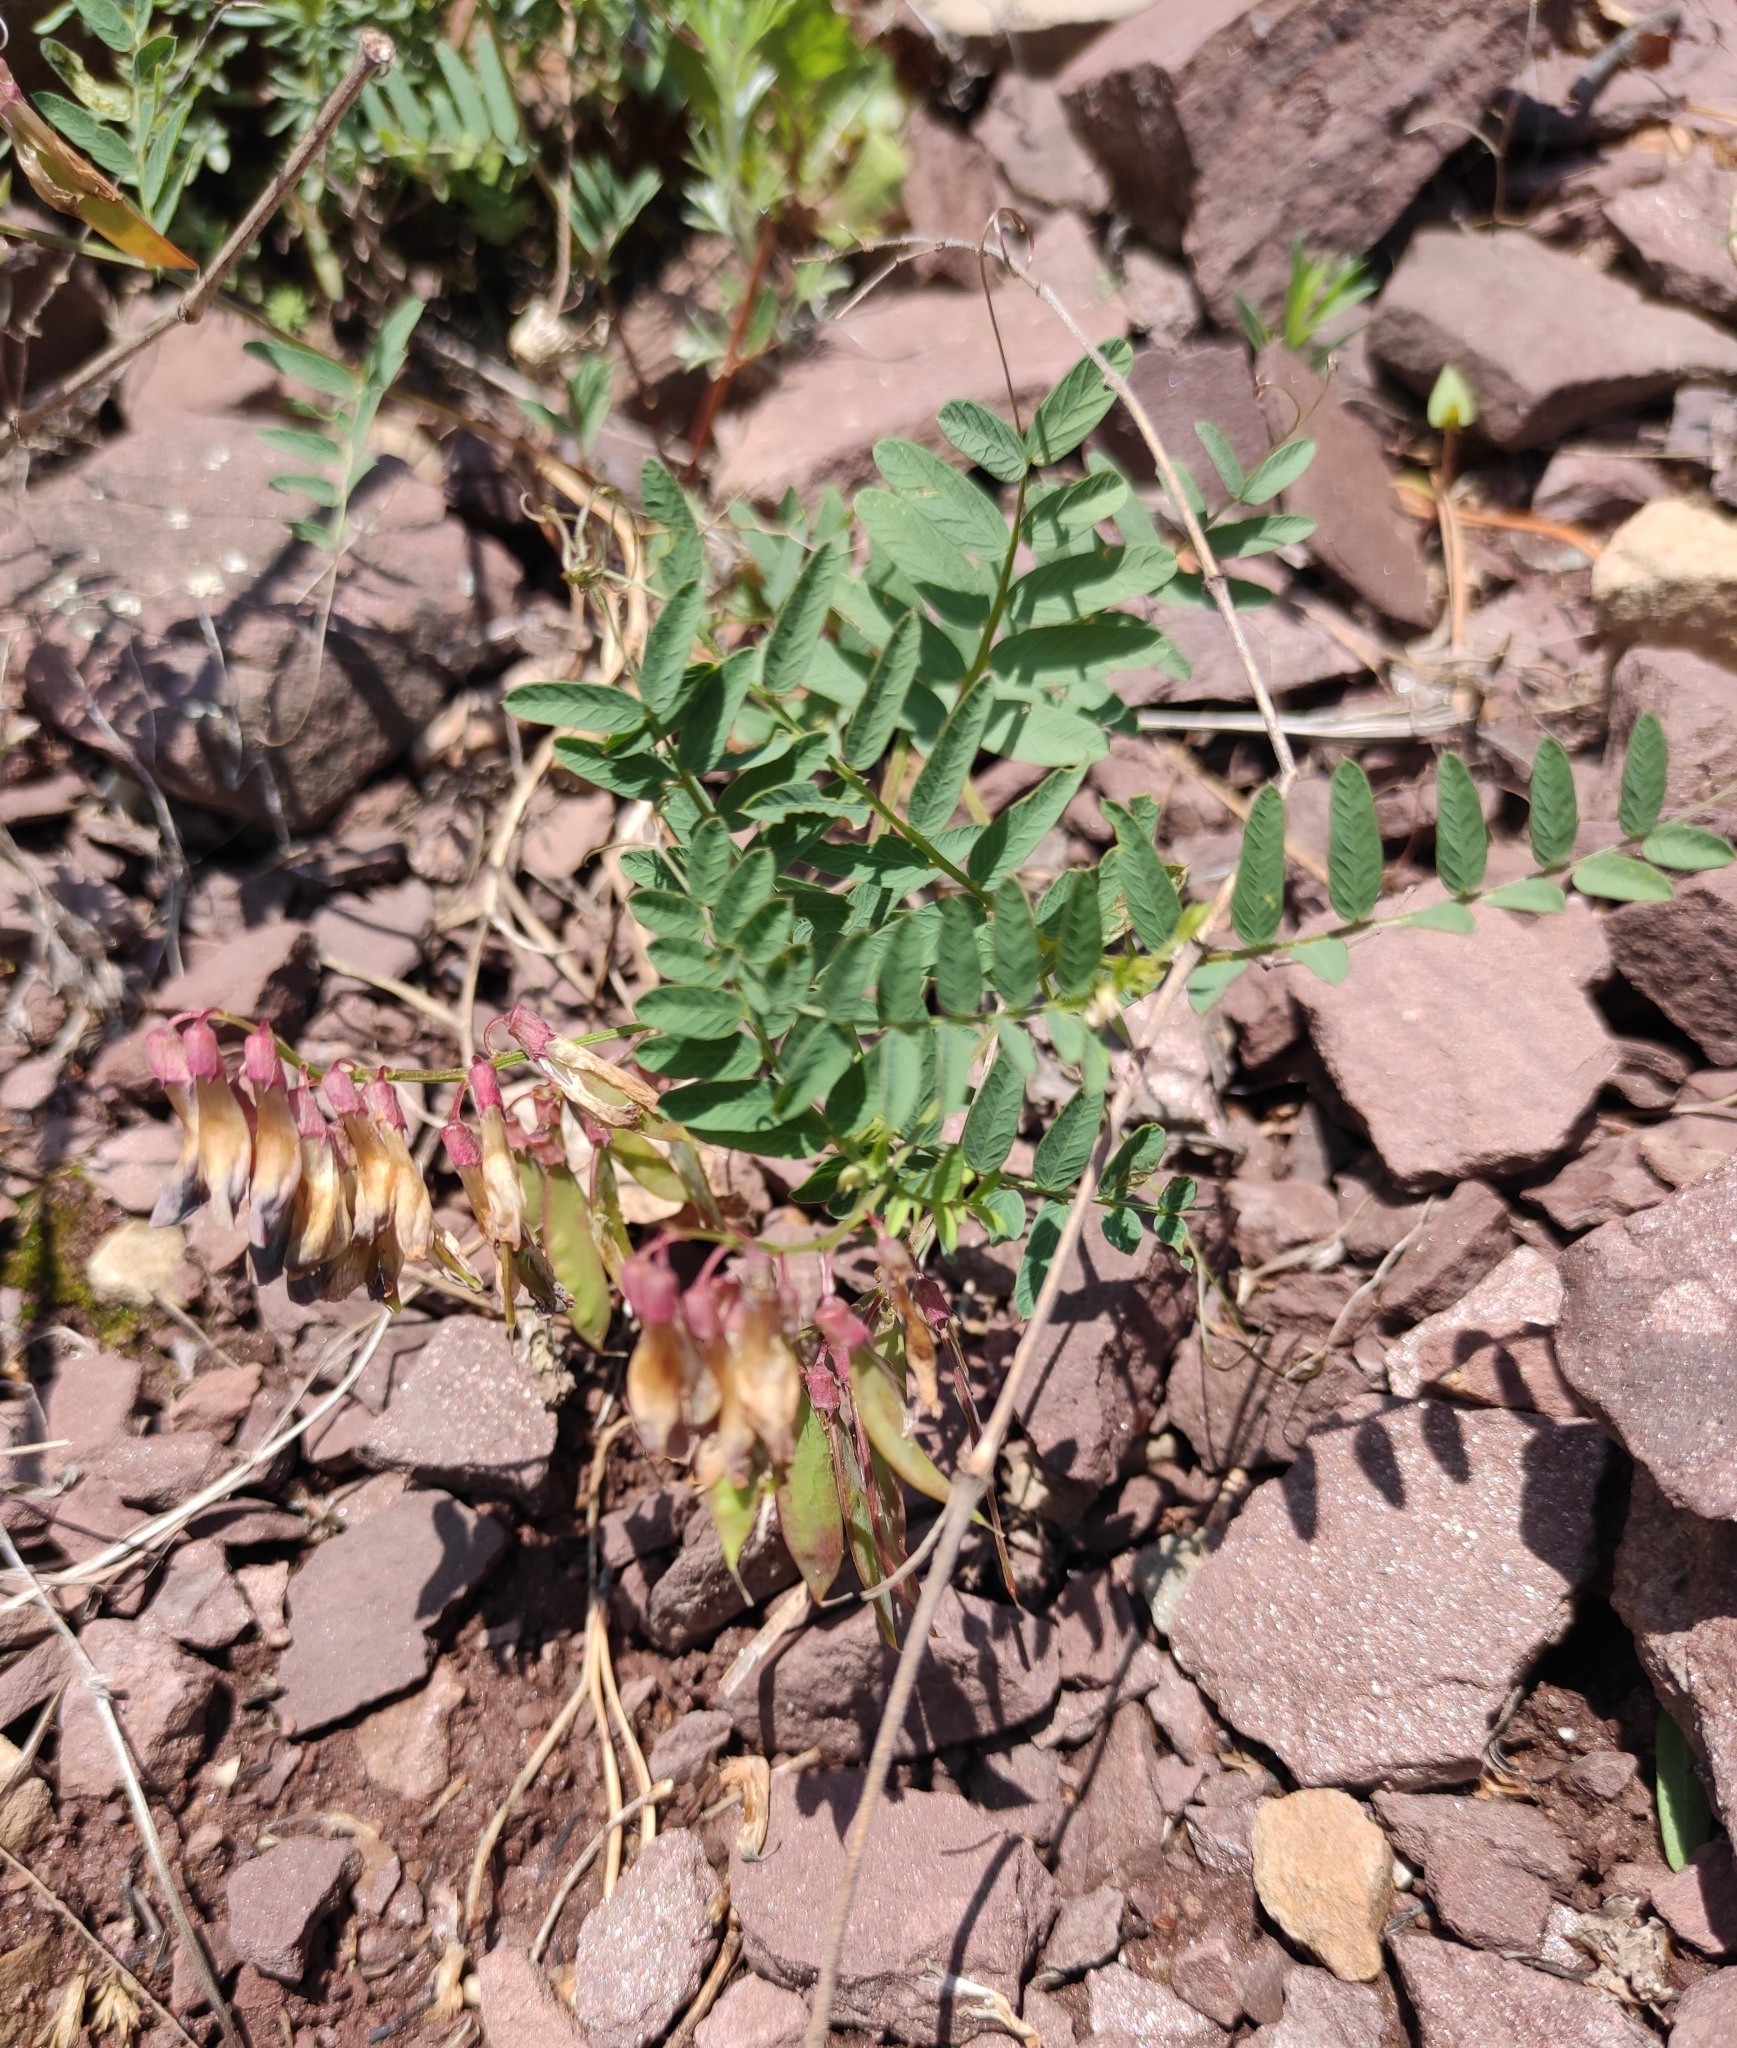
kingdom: Plantae
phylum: Tracheophyta
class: Magnoliopsida
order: Fabales
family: Fabaceae
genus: Vicia
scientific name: Vicia multicaulis
